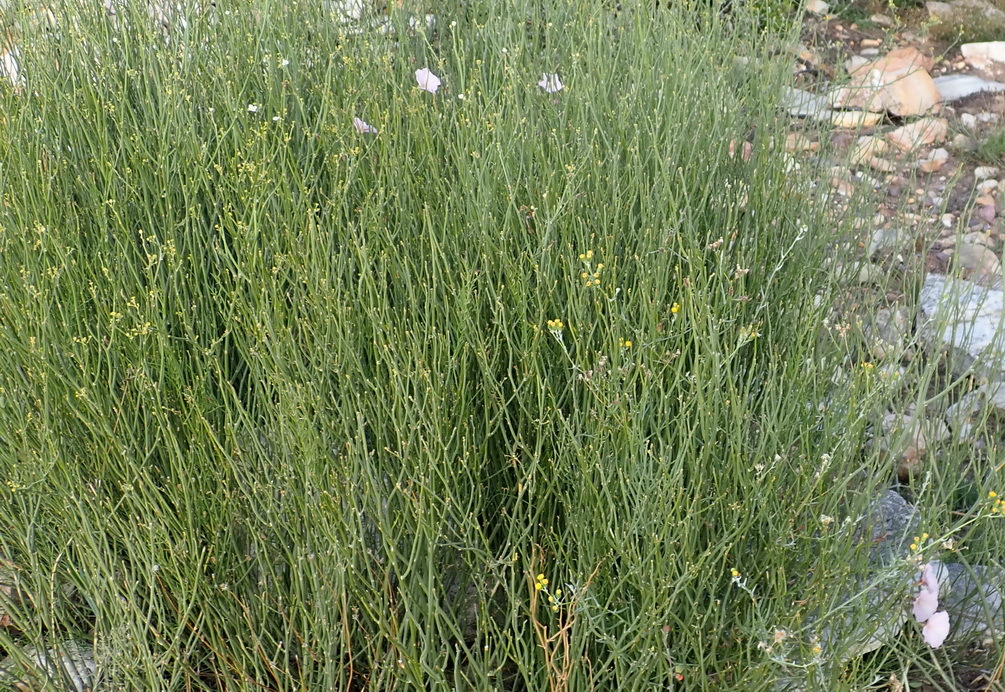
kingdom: Plantae
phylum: Tracheophyta
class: Magnoliopsida
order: Solanales
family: Convolvulaceae
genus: Convolvulus
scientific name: Convolvulus capensis
